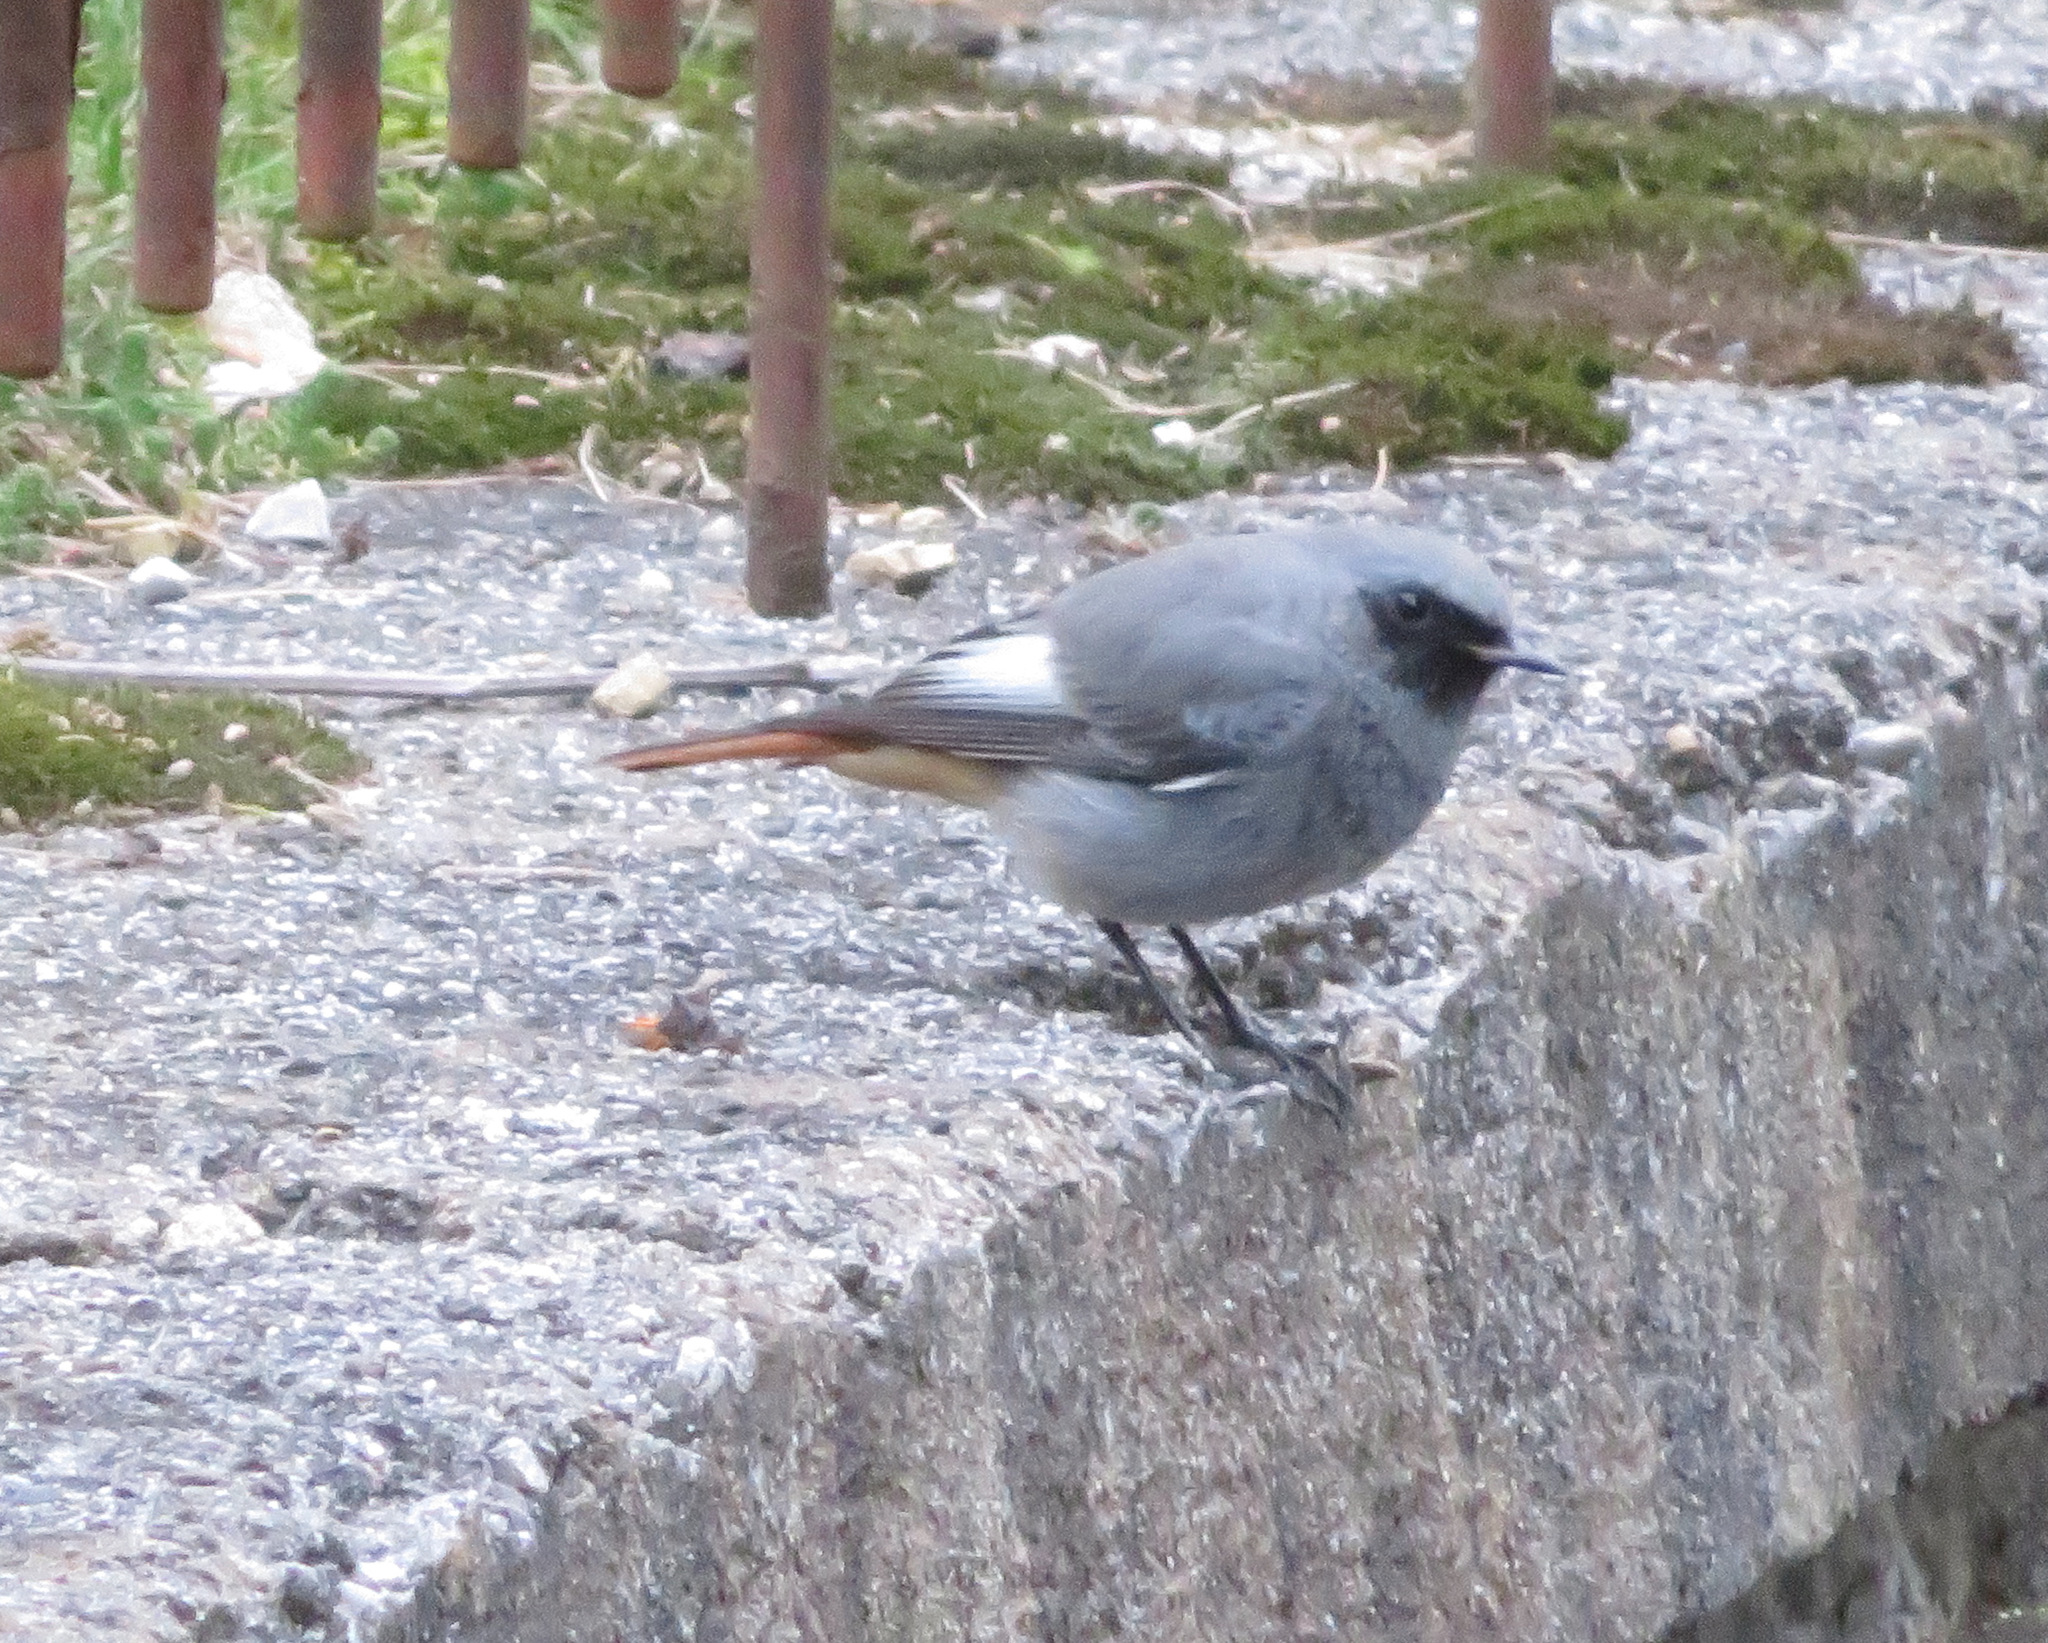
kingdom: Animalia
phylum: Chordata
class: Aves
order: Passeriformes
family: Muscicapidae
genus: Phoenicurus
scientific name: Phoenicurus ochruros
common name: Black redstart
